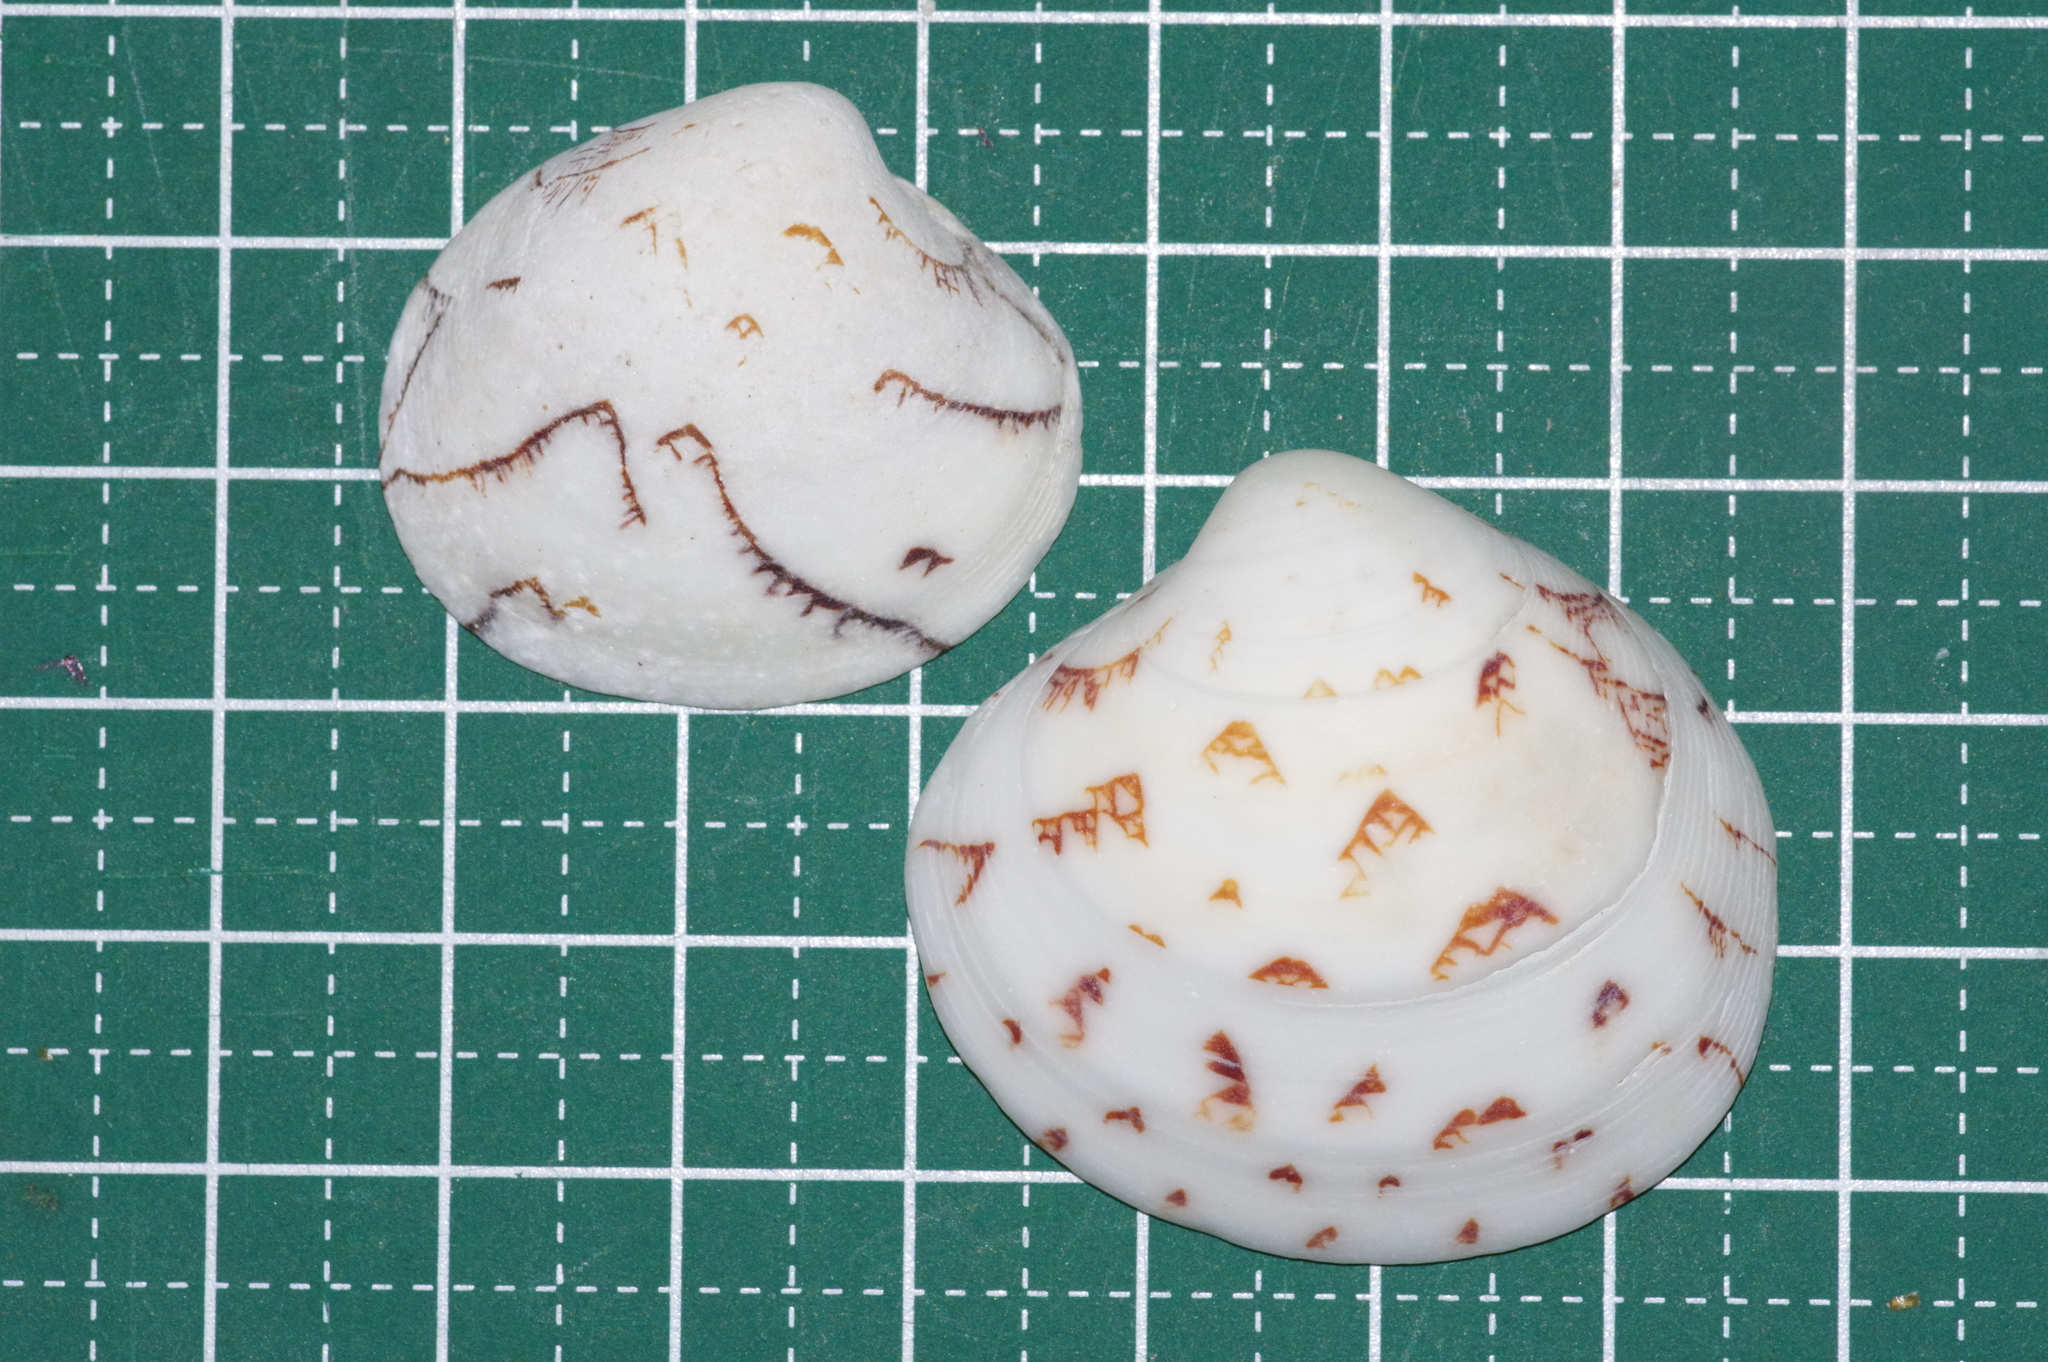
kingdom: Animalia
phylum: Mollusca
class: Bivalvia
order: Venerida
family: Veneridae
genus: Lioconcha
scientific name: Lioconcha castrensis
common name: Camp pitar-venus
